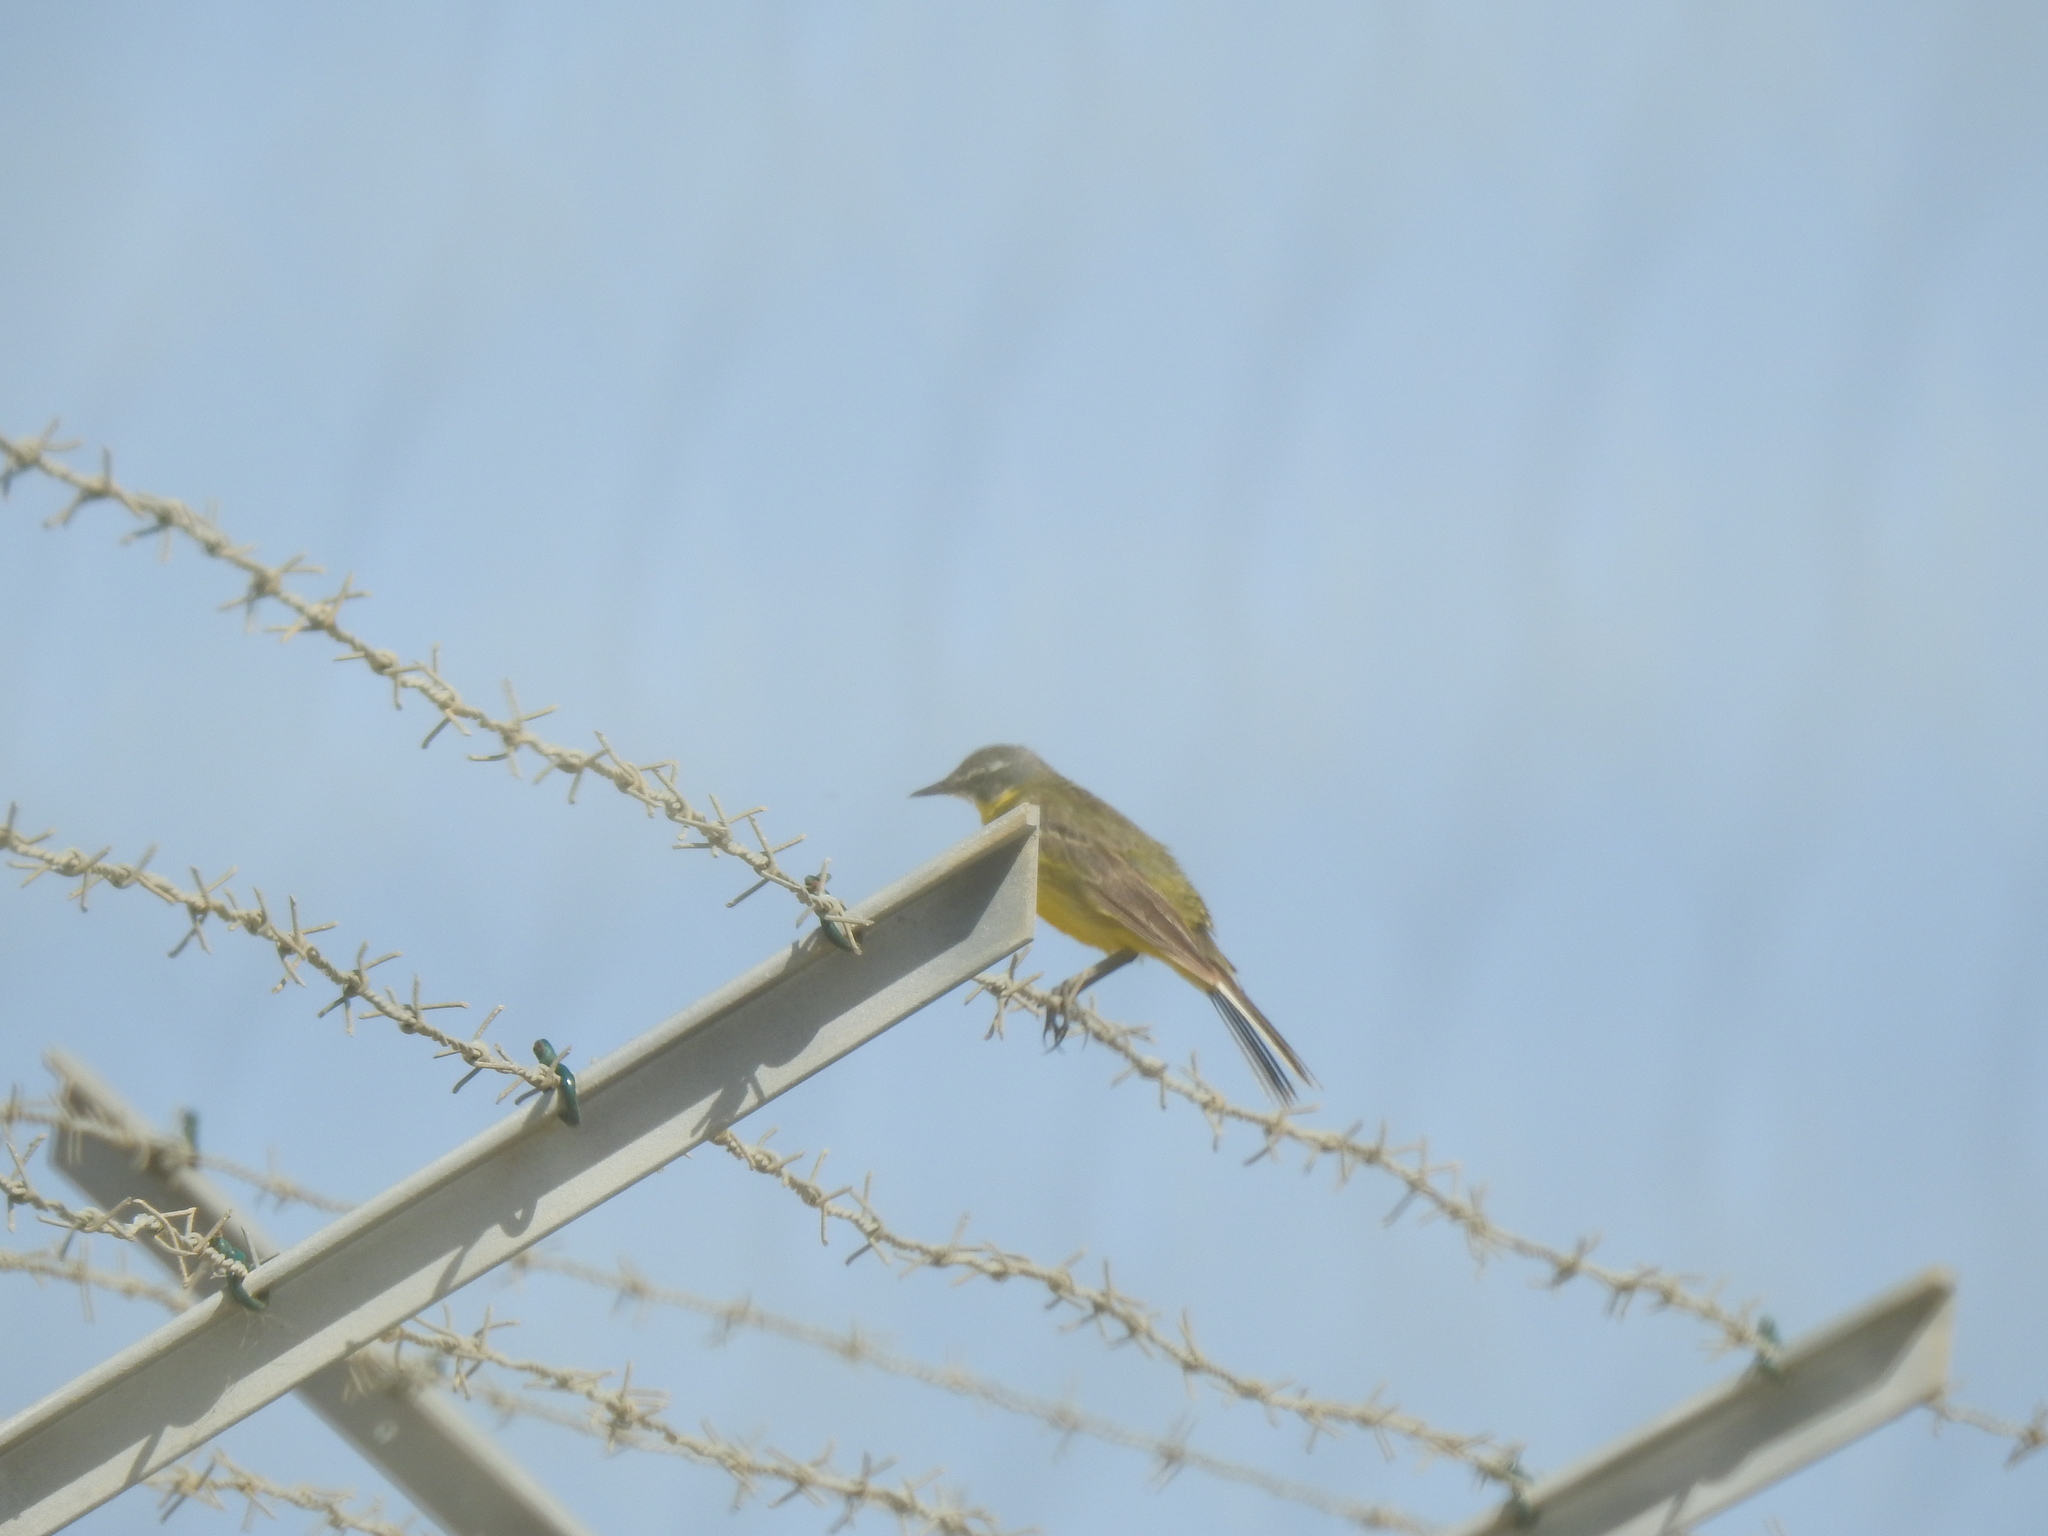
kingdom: Animalia
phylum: Chordata
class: Aves
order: Passeriformes
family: Motacillidae
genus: Motacilla
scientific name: Motacilla flava
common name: Western yellow wagtail
